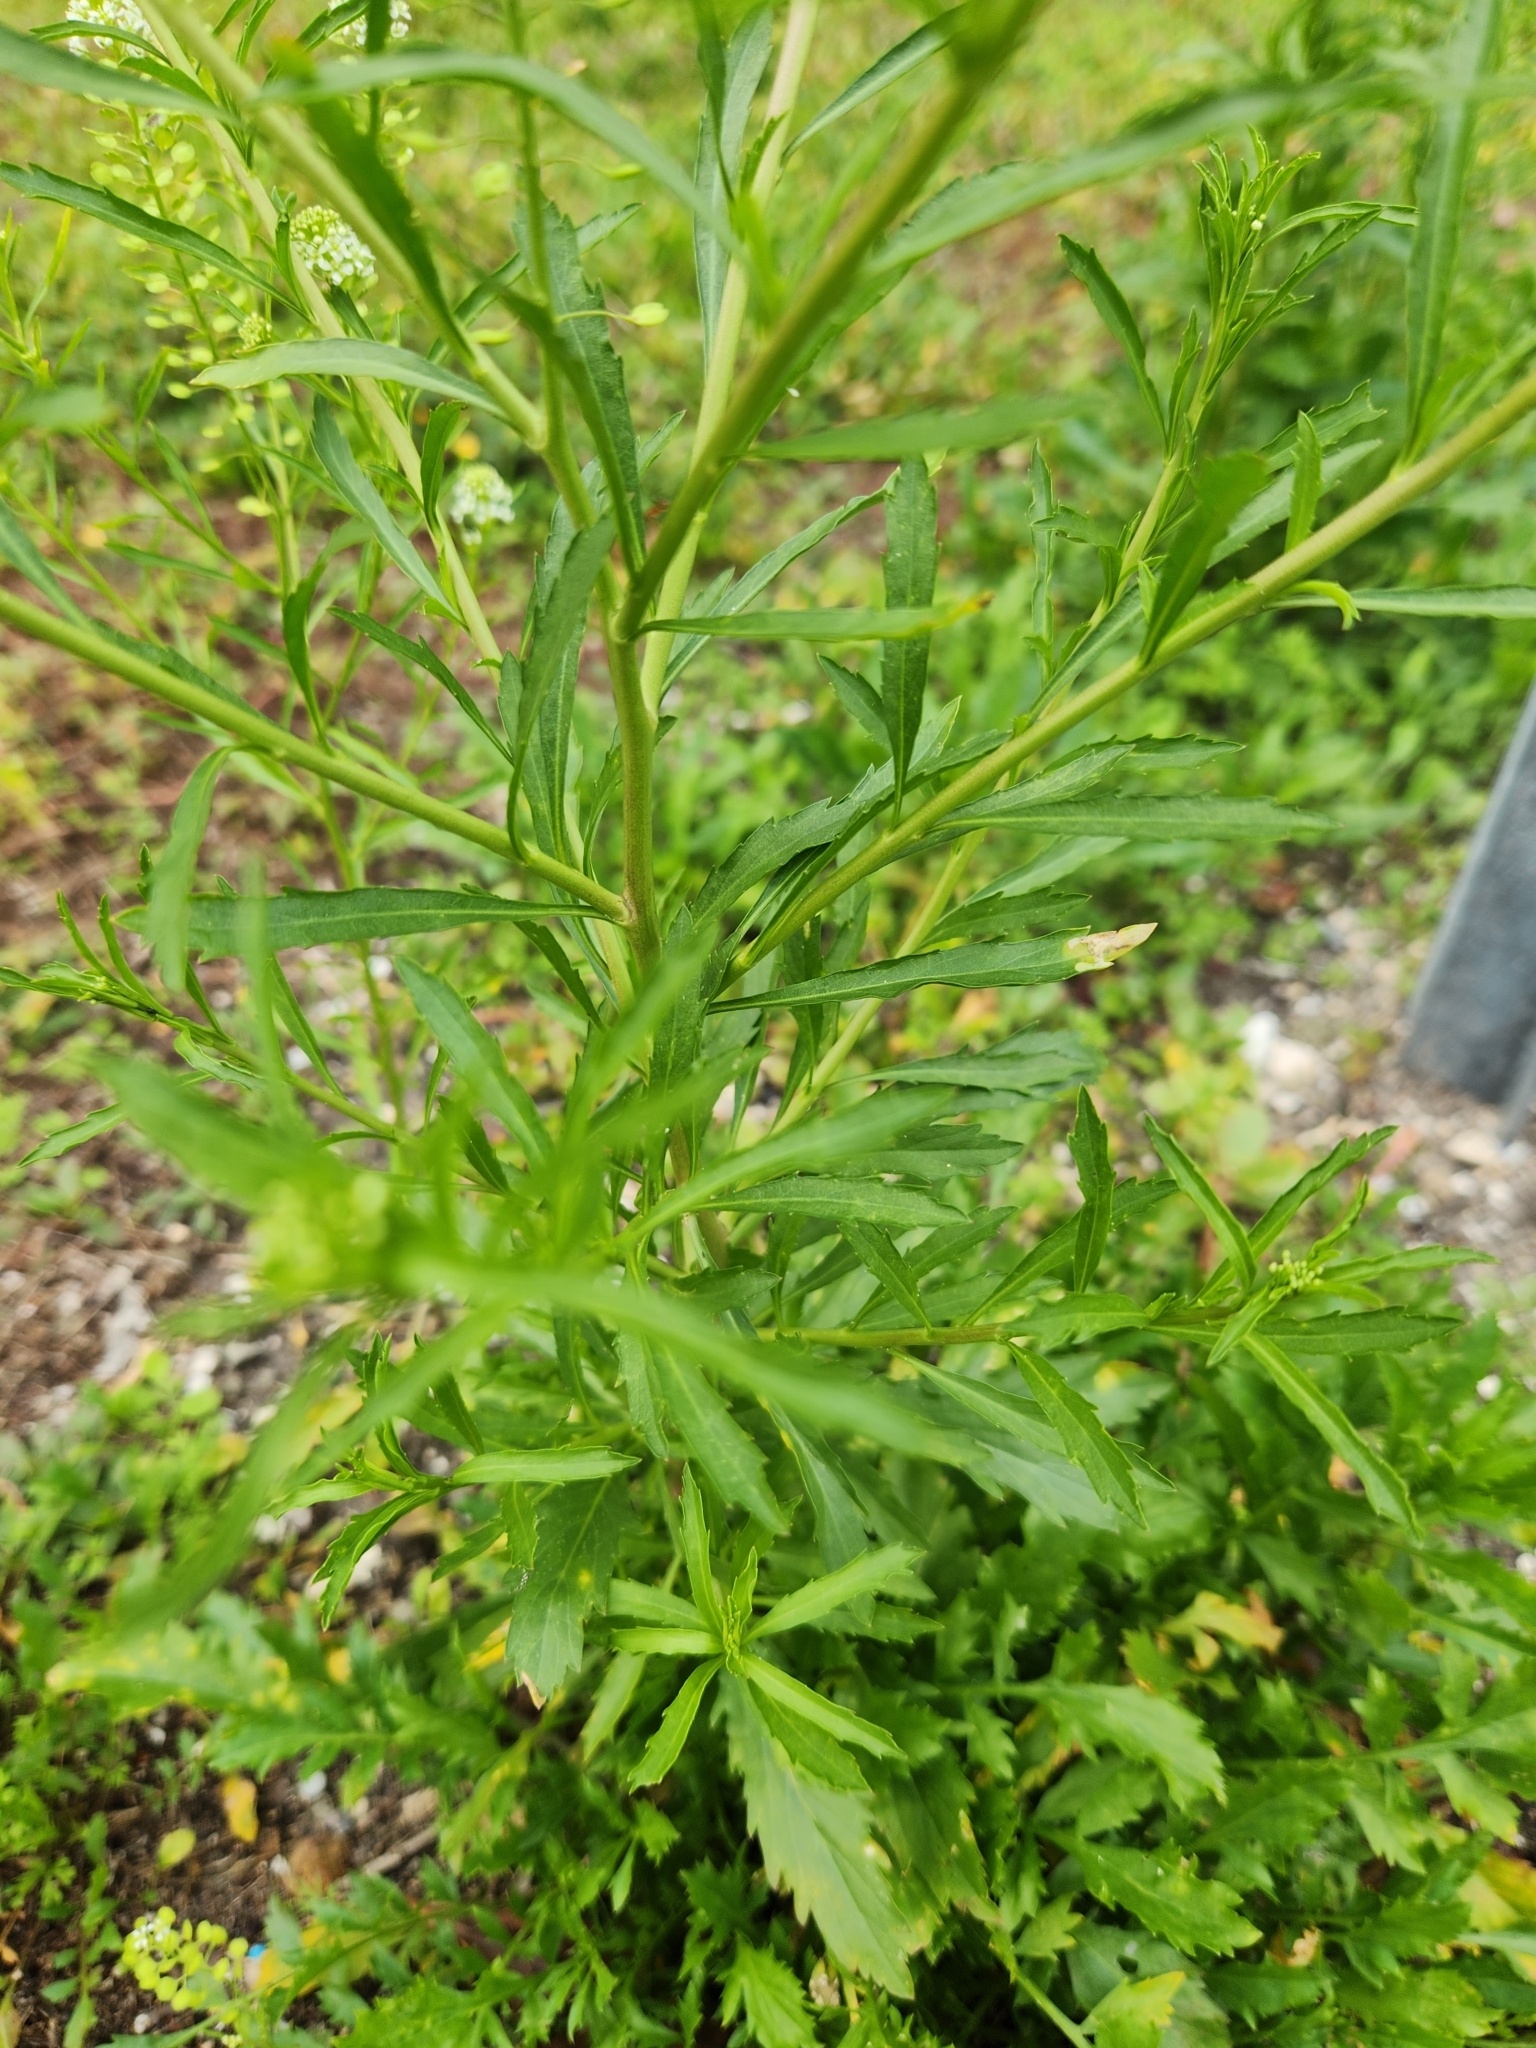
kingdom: Plantae
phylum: Tracheophyta
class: Magnoliopsida
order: Brassicales
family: Brassicaceae
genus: Lepidium
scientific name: Lepidium virginicum
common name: Least pepperwort
